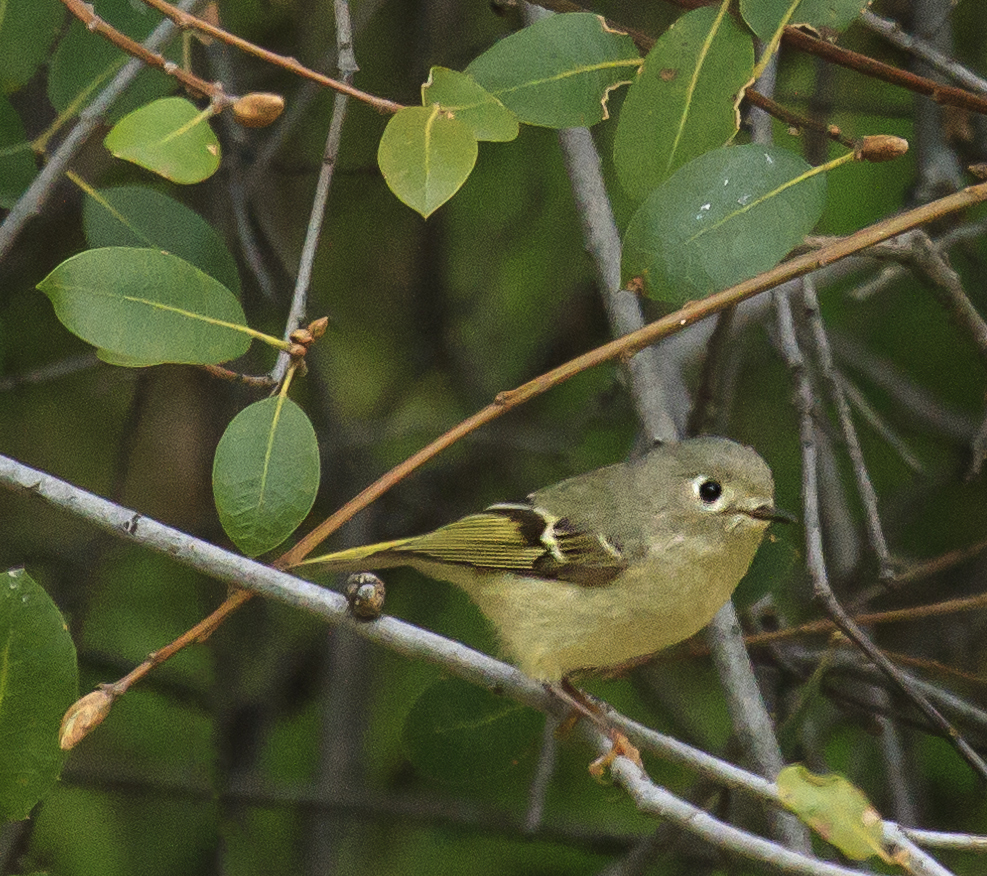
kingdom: Animalia
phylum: Chordata
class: Aves
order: Passeriformes
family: Regulidae
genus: Regulus
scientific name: Regulus calendula
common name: Ruby-crowned kinglet
